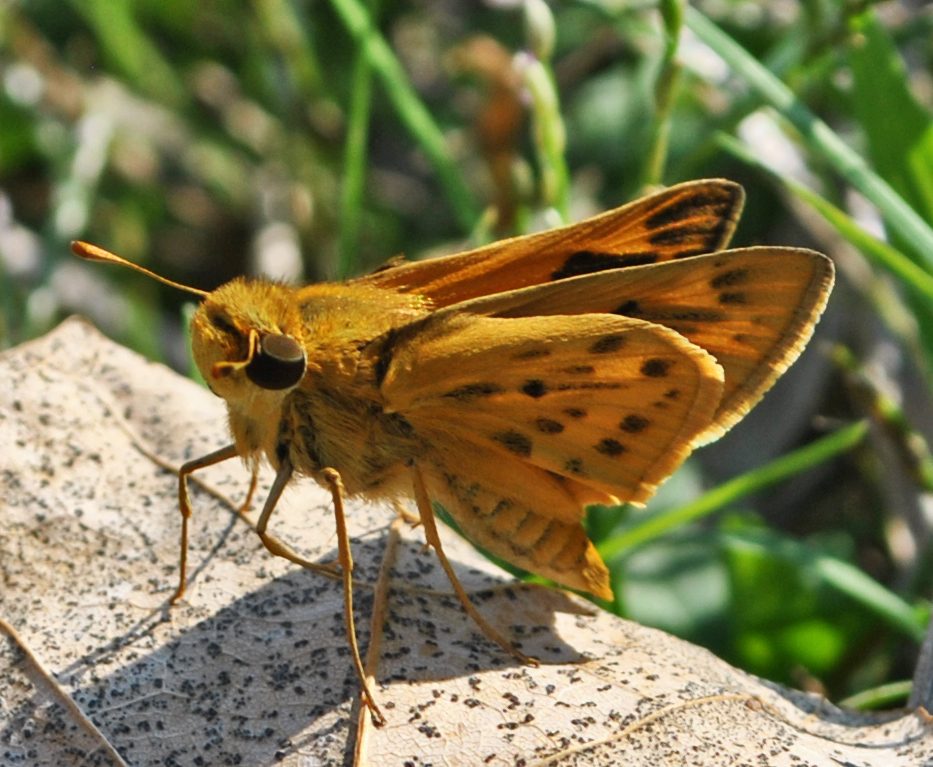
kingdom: Animalia
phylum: Arthropoda
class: Insecta
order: Lepidoptera
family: Hesperiidae
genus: Hylephila
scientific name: Hylephila phyleus
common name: Fiery skipper
